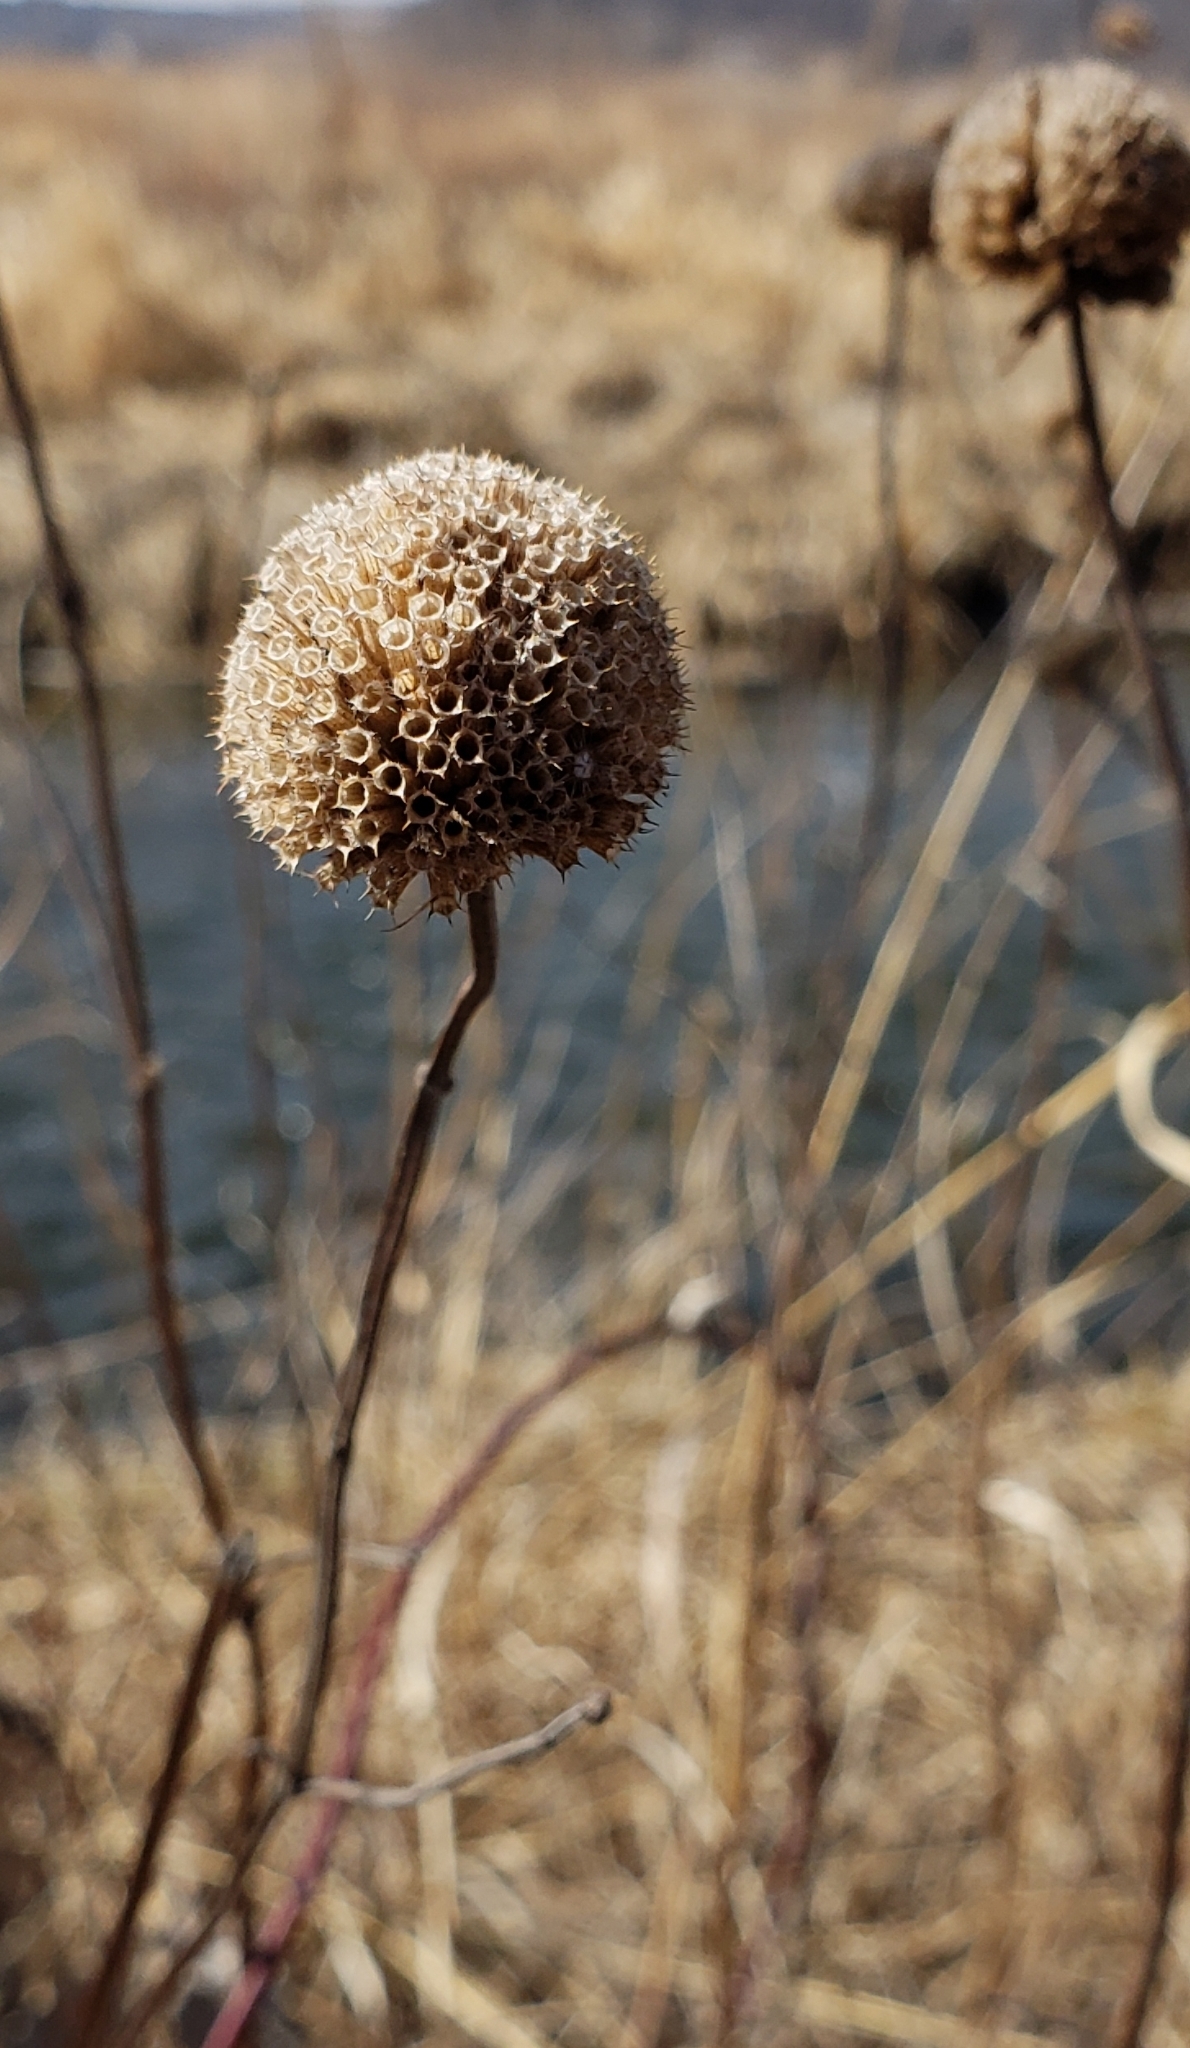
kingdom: Plantae
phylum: Tracheophyta
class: Magnoliopsida
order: Lamiales
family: Lamiaceae
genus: Monarda
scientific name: Monarda fistulosa
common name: Purple beebalm
